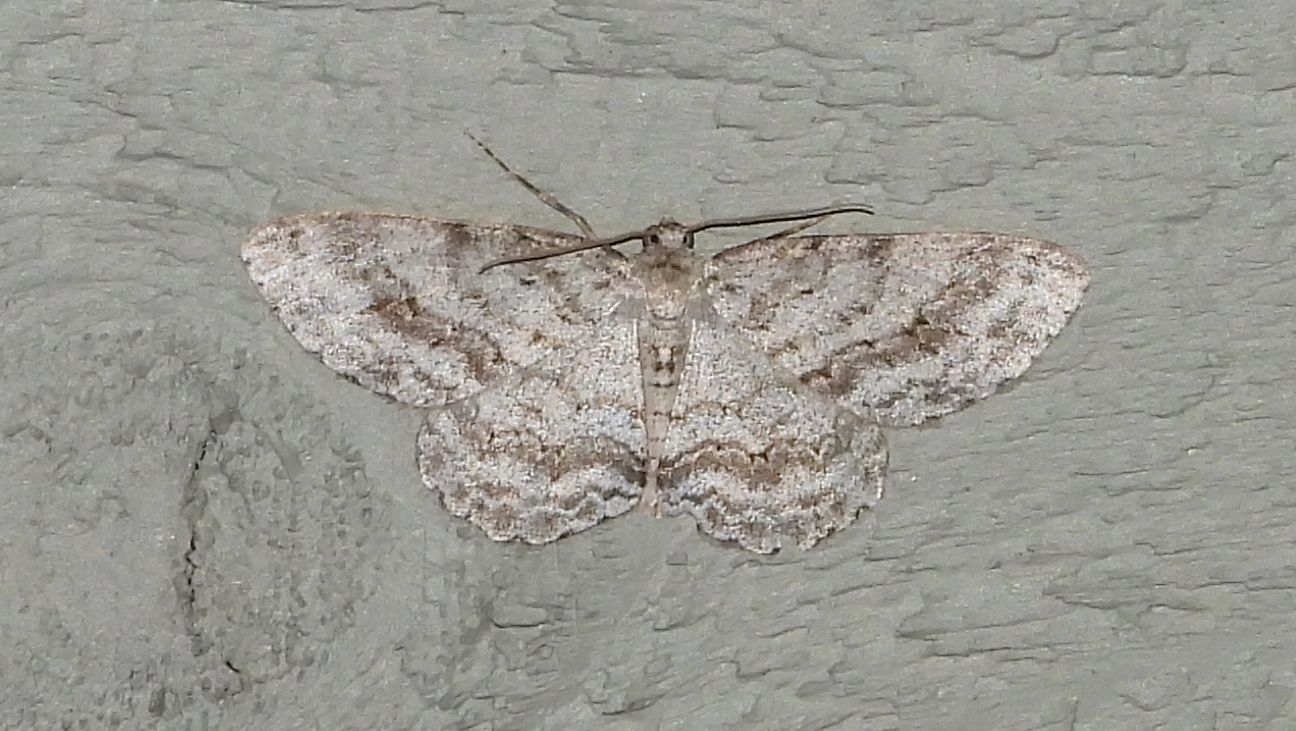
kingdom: Animalia
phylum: Arthropoda
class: Insecta
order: Lepidoptera
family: Geometridae
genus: Ectropis
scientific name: Ectropis crepuscularia
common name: Engrailed
